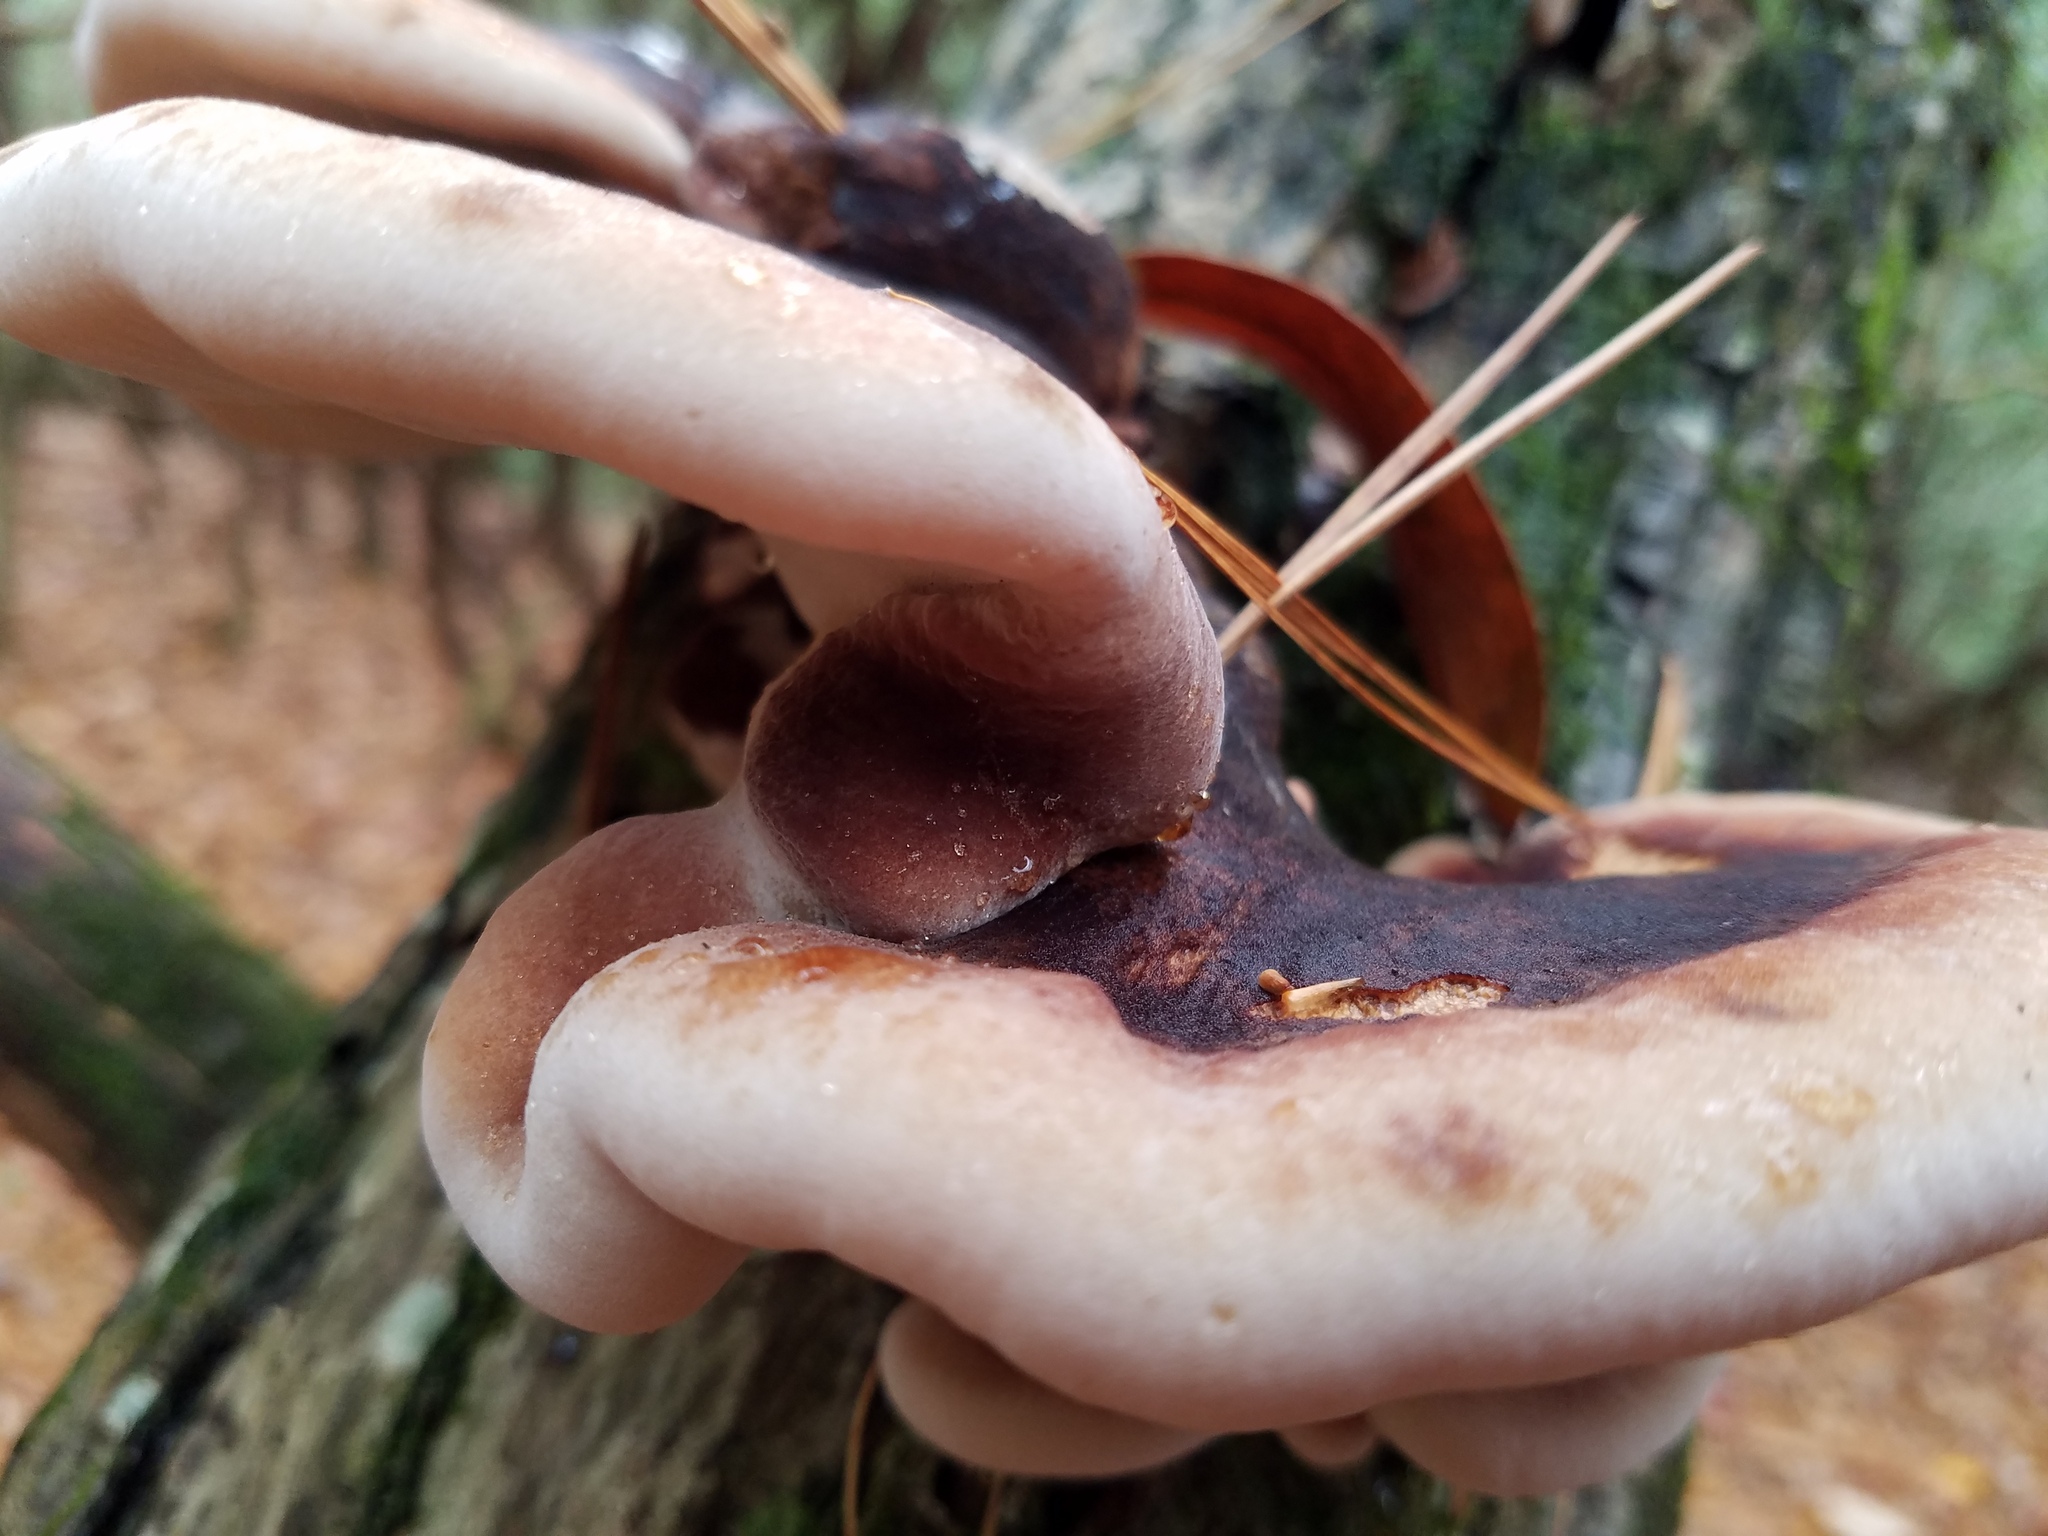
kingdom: Fungi
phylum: Basidiomycota
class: Agaricomycetes
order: Polyporales
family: Ischnodermataceae
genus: Ischnoderma
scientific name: Ischnoderma resinosum
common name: Resinous polypore
